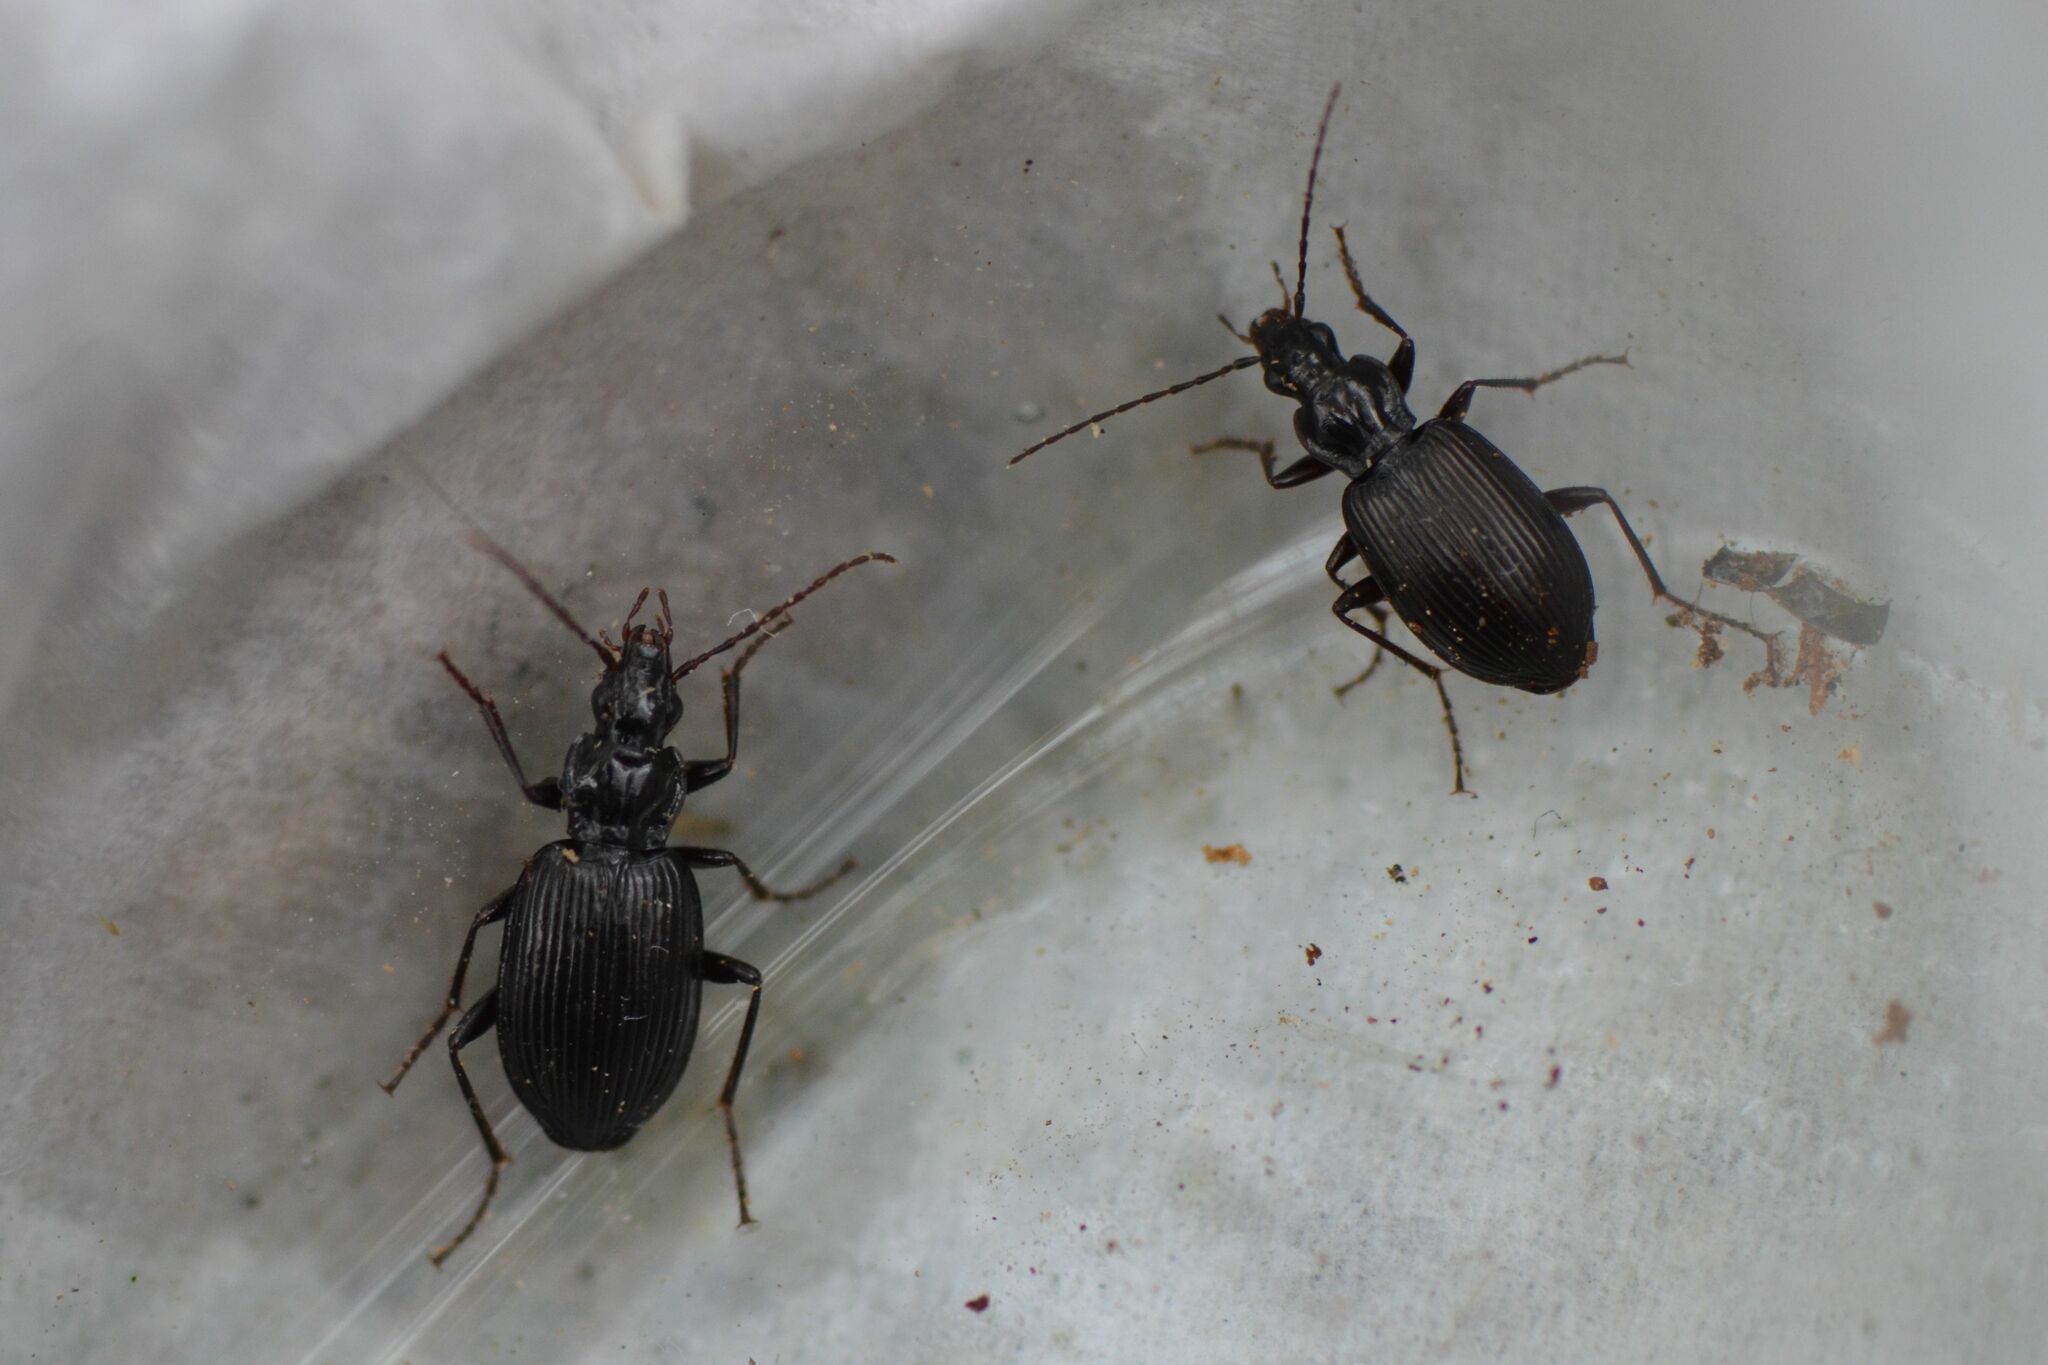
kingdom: Animalia
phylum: Arthropoda
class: Insecta
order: Coleoptera
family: Carabidae
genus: Platynus
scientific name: Platynus assimilis
